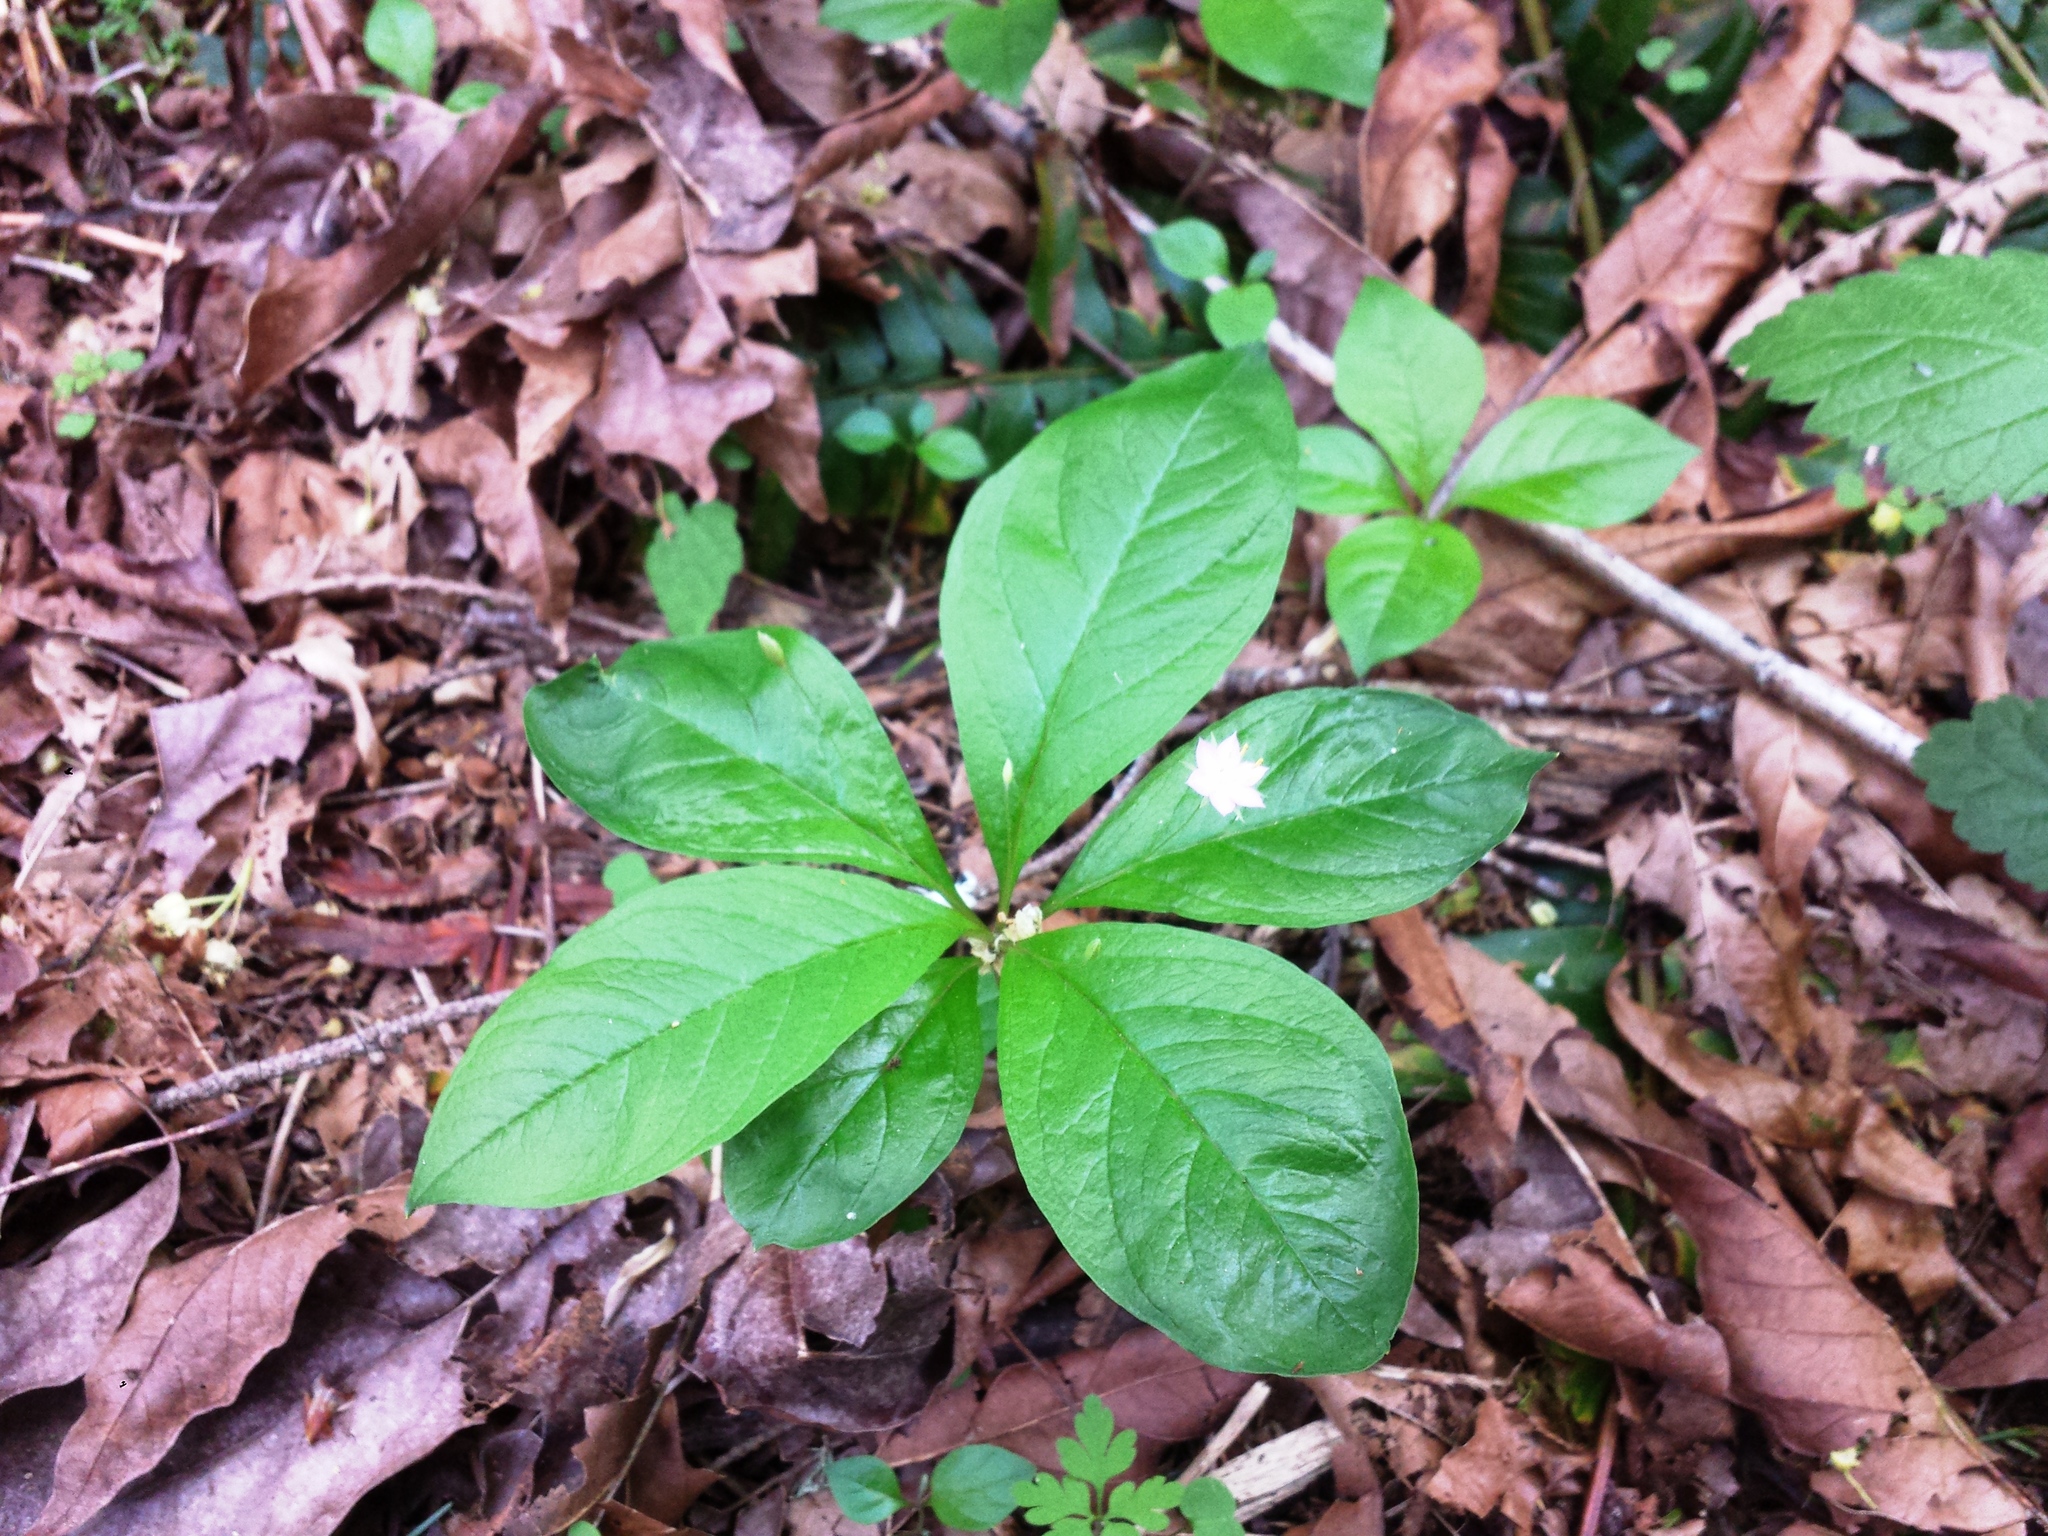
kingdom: Plantae
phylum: Tracheophyta
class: Magnoliopsida
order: Ericales
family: Primulaceae
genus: Lysimachia
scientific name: Lysimachia latifolia
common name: Pacific starflower
